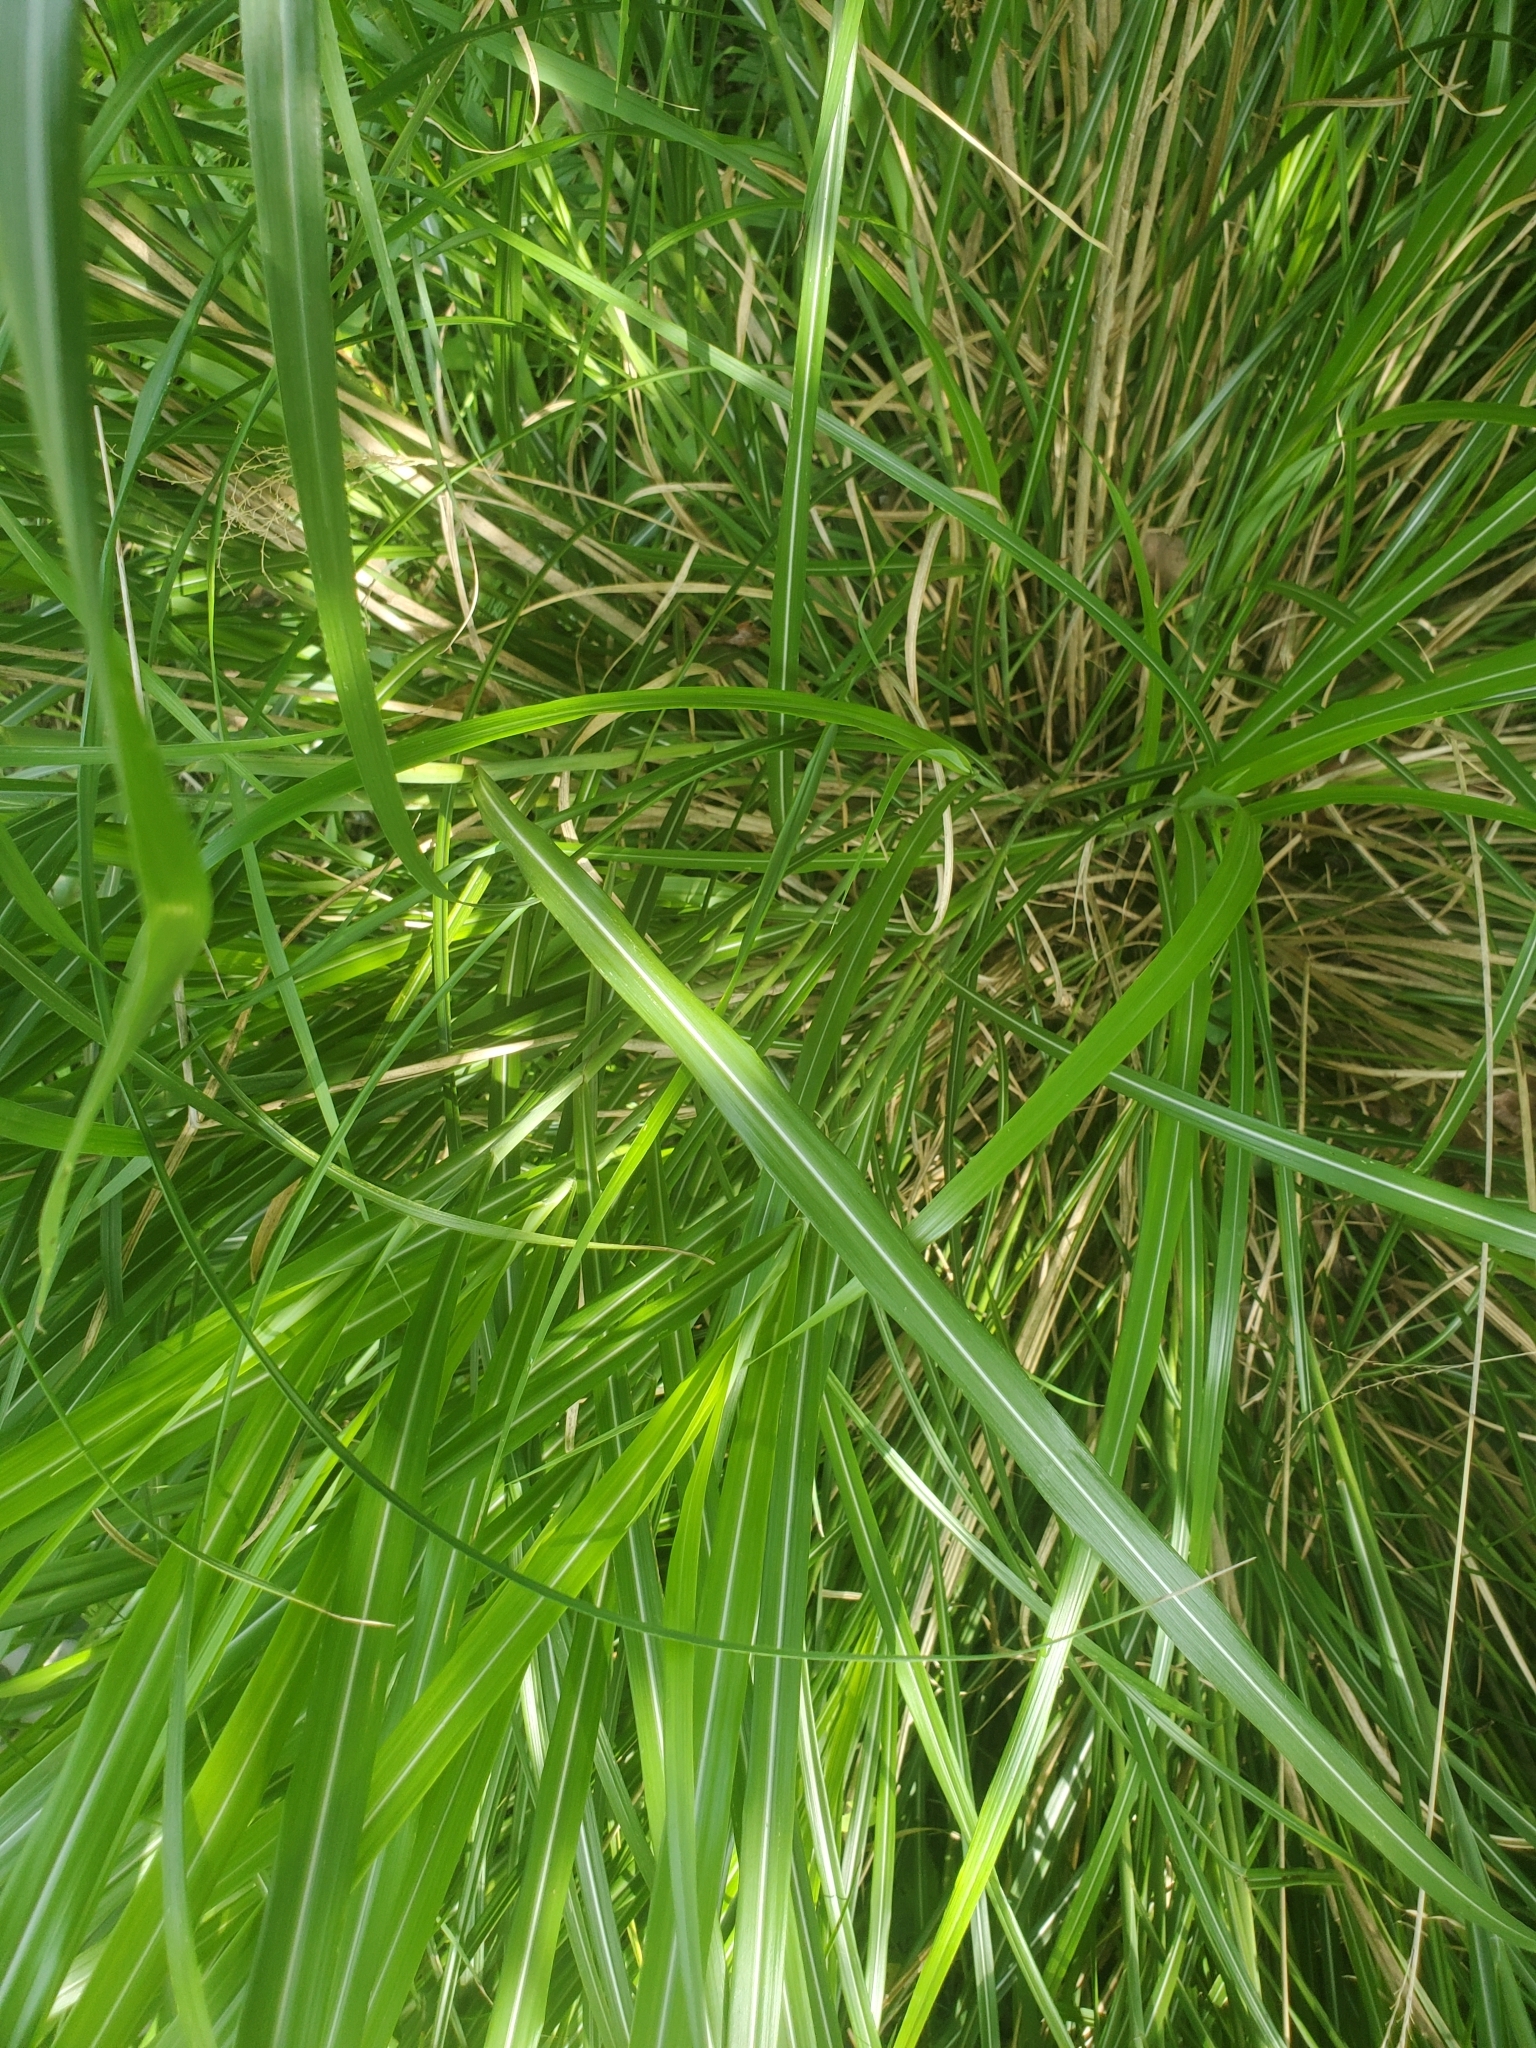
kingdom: Plantae
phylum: Tracheophyta
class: Liliopsida
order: Poales
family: Poaceae
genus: Miscanthus
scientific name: Miscanthus sinensis
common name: Chinese silvergrass
